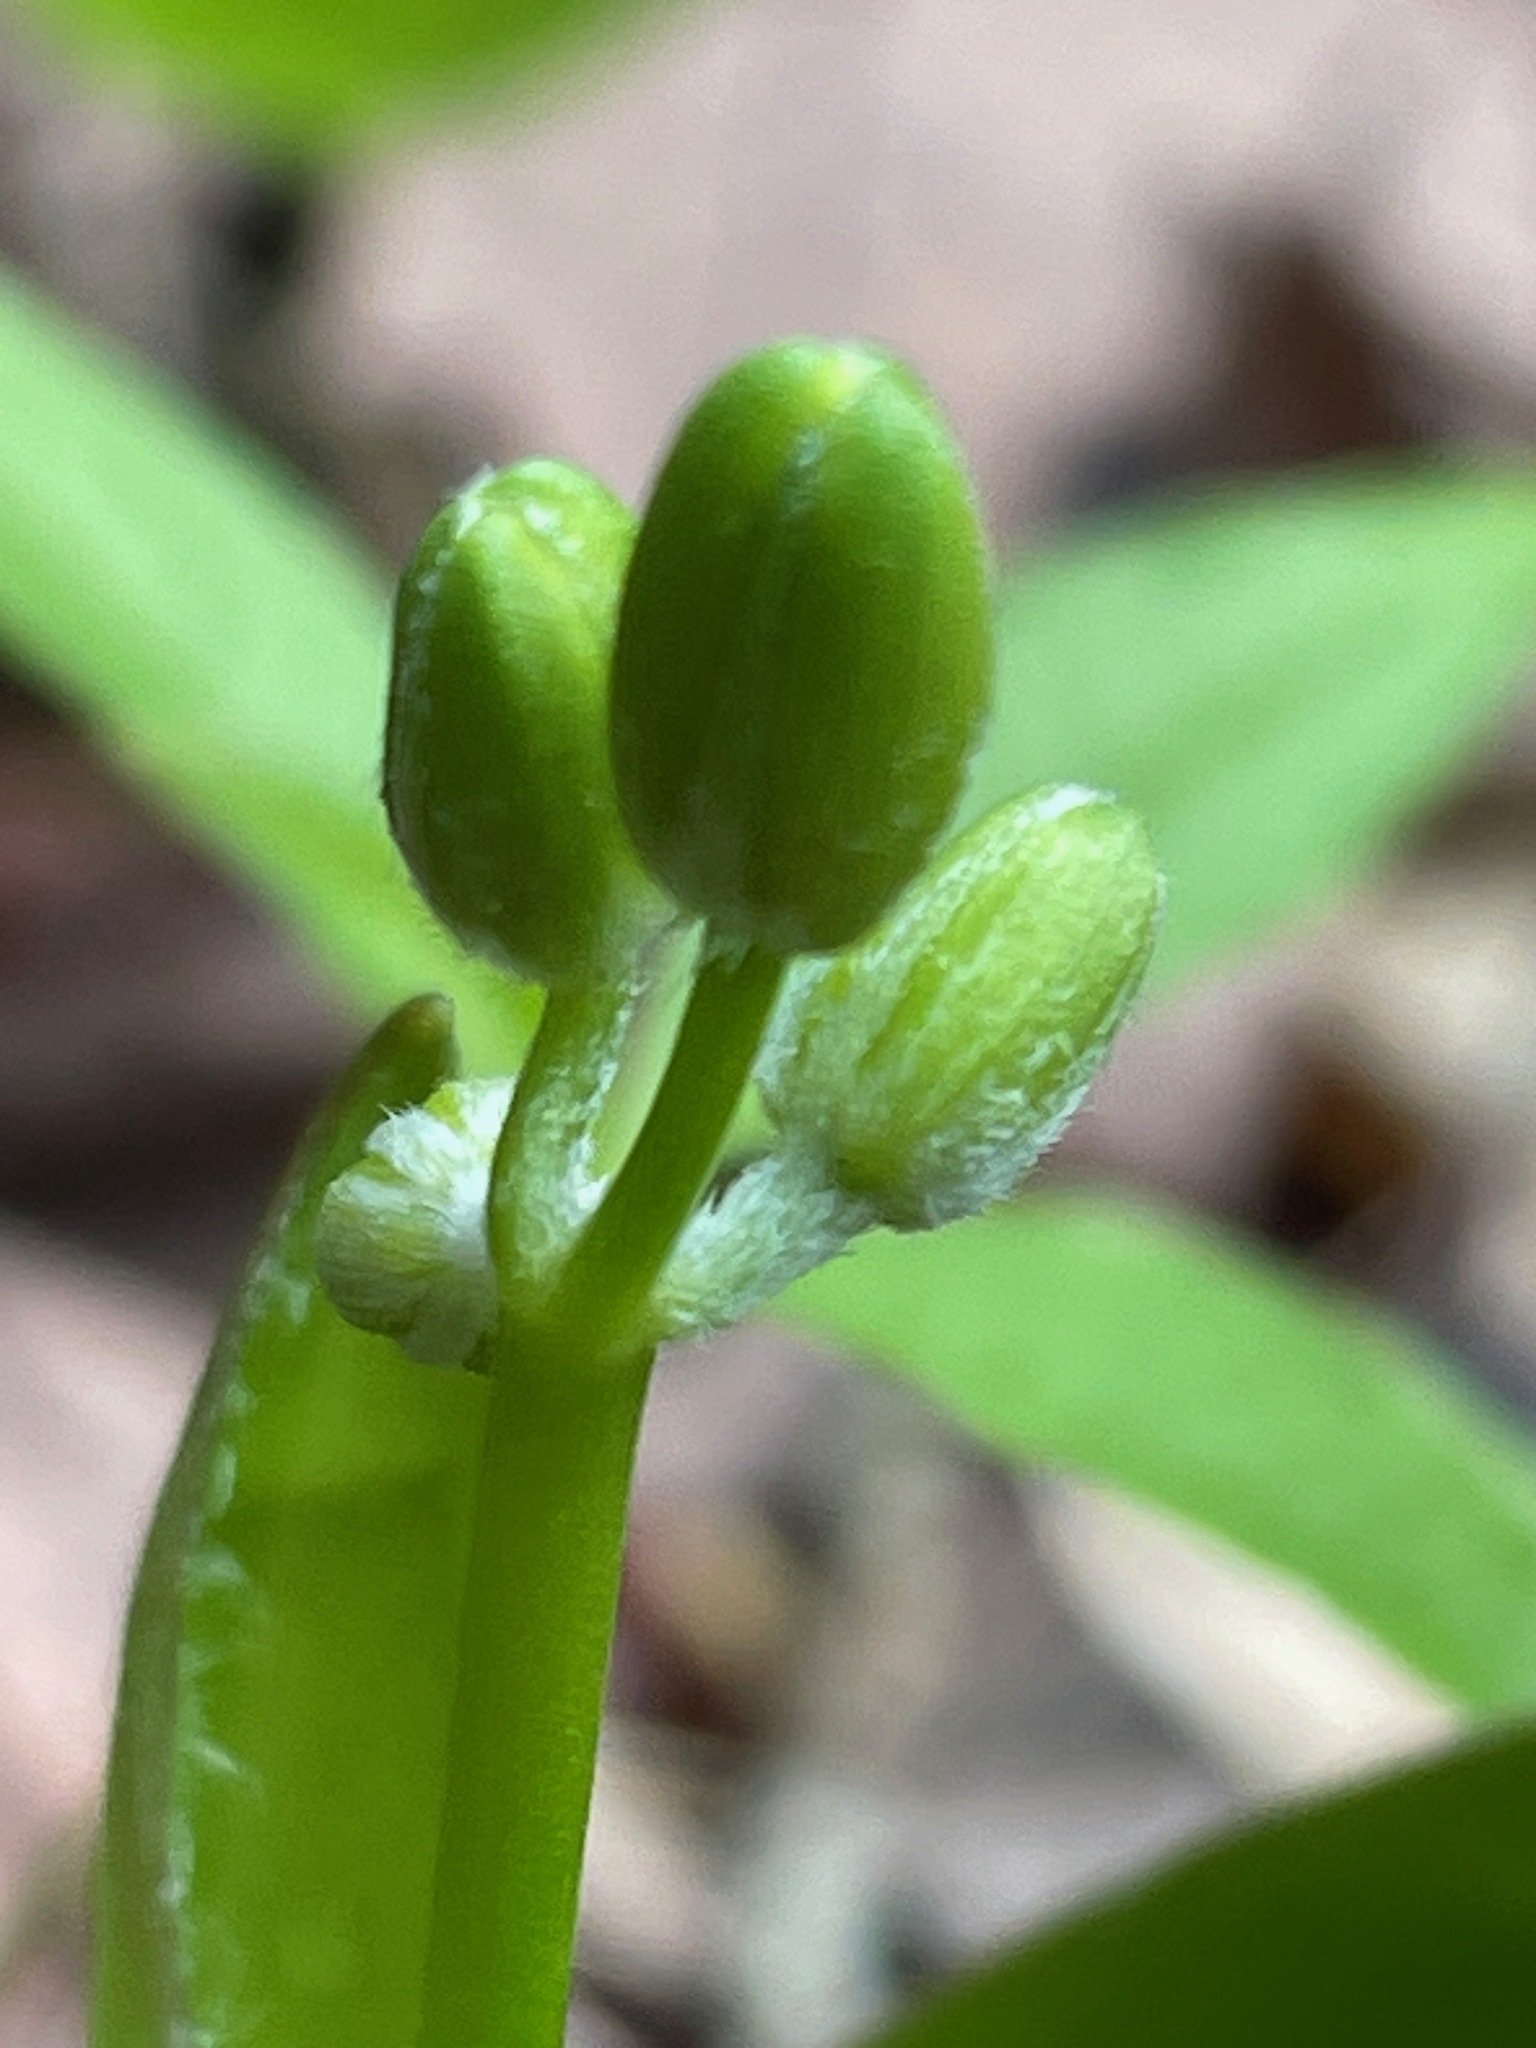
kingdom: Plantae
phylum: Tracheophyta
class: Liliopsida
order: Liliales
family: Liliaceae
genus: Clintonia
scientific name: Clintonia borealis
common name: Yellow clintonia
